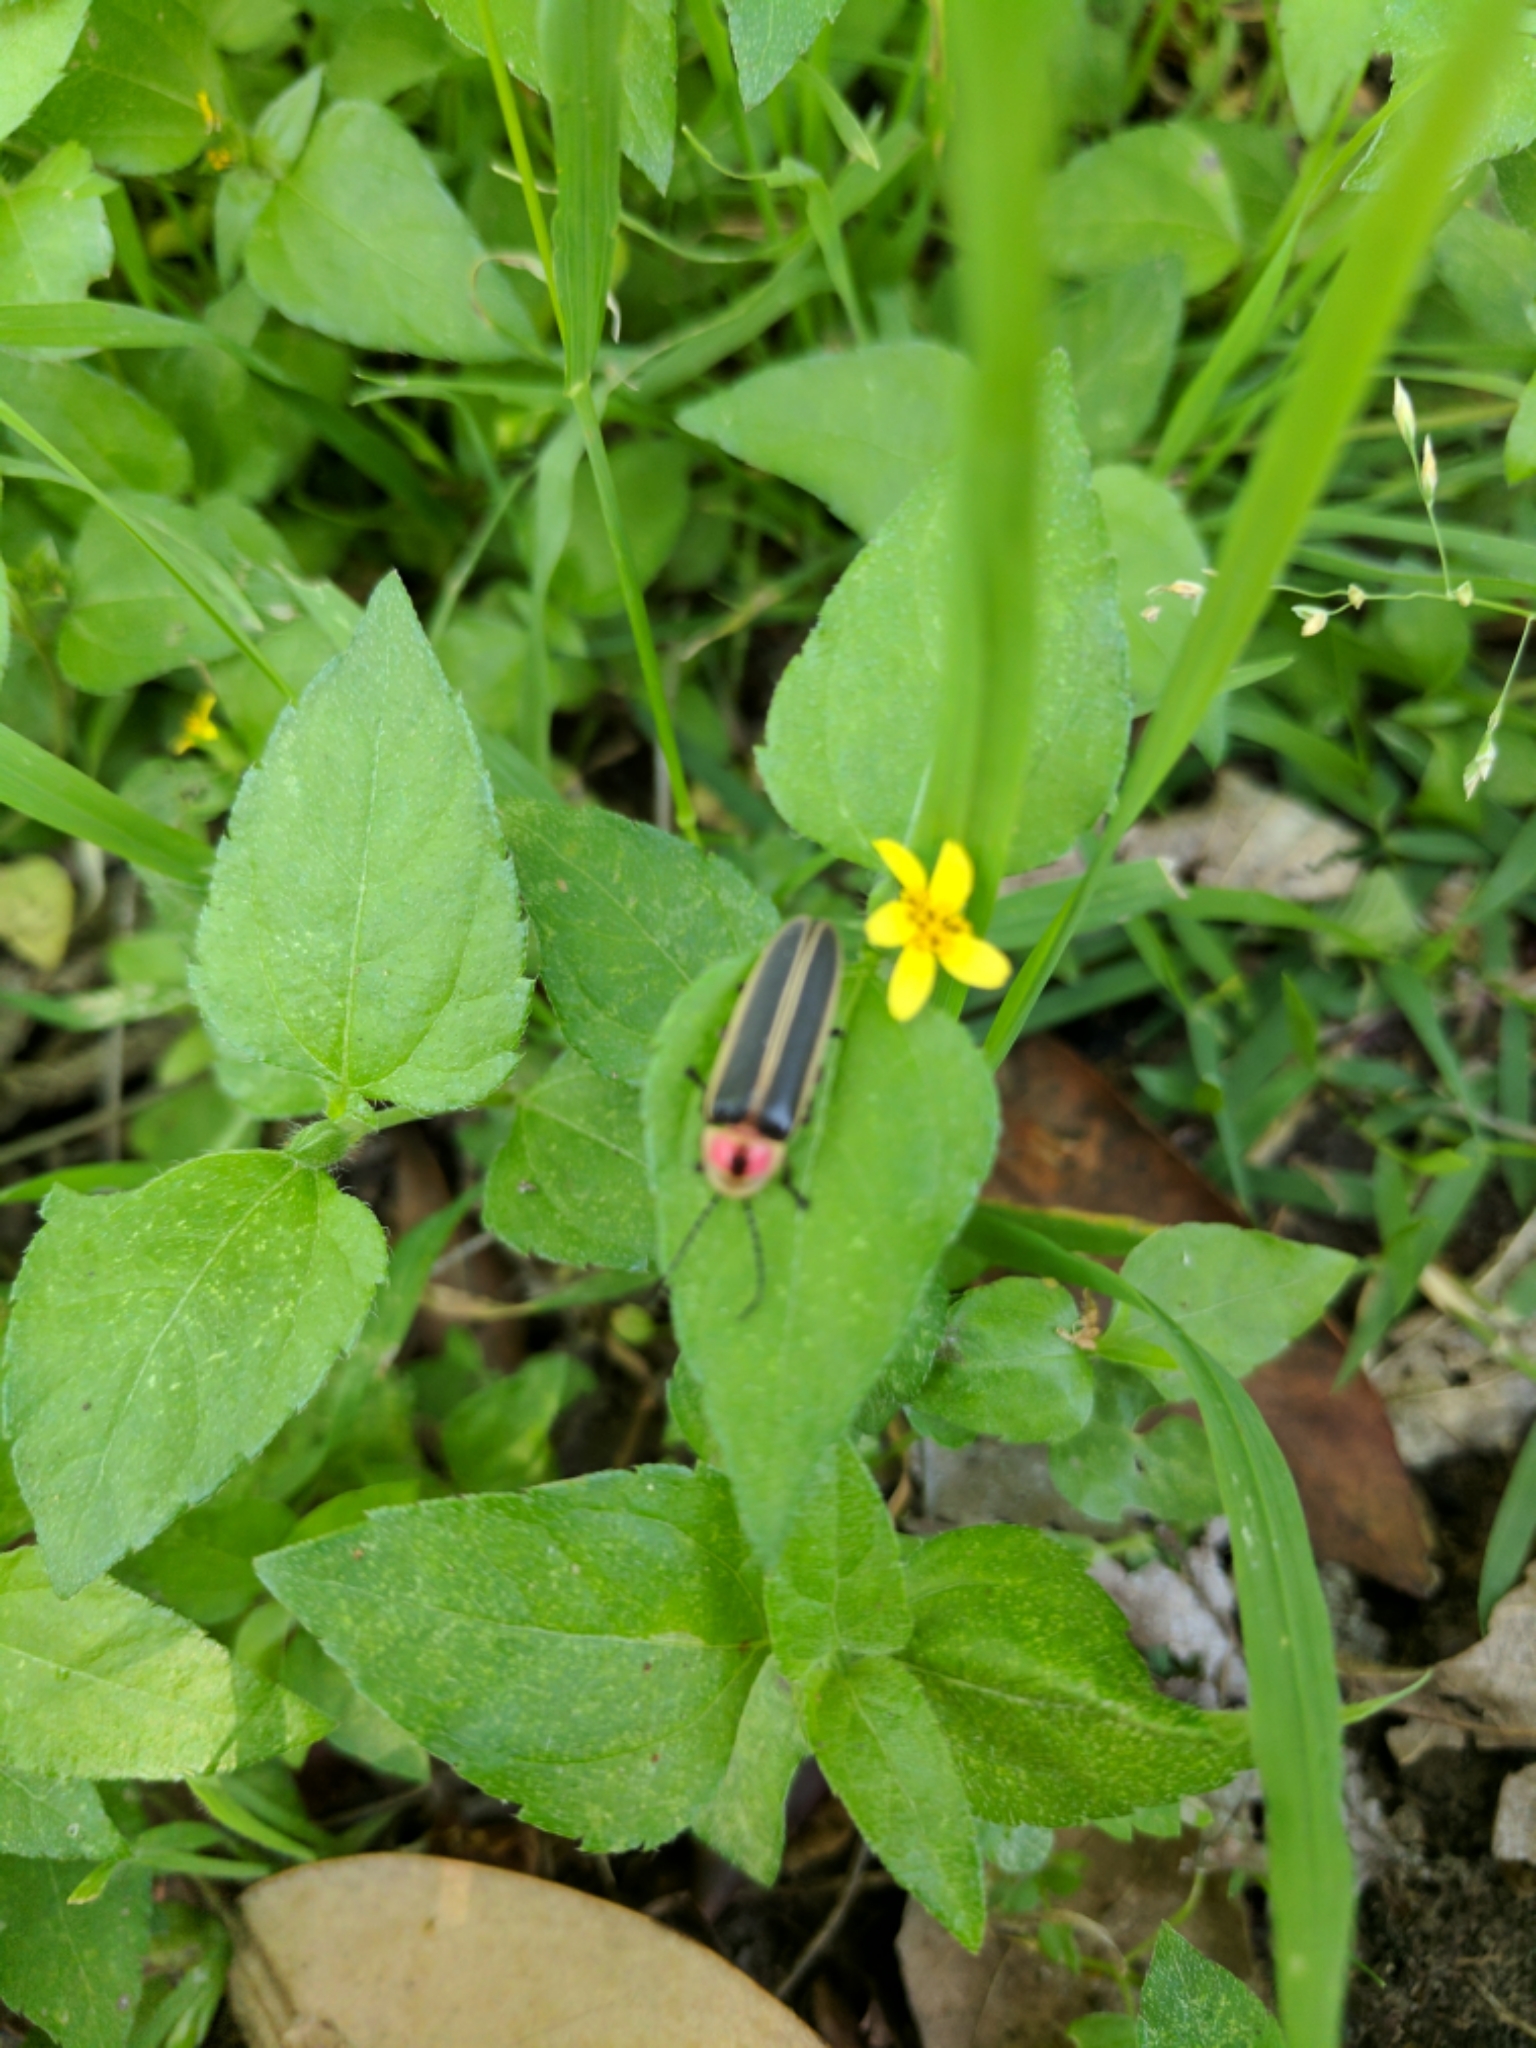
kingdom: Animalia
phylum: Arthropoda
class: Insecta
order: Coleoptera
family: Lampyridae
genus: Photinus
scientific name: Photinus pyralis
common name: Big dipper firefly
